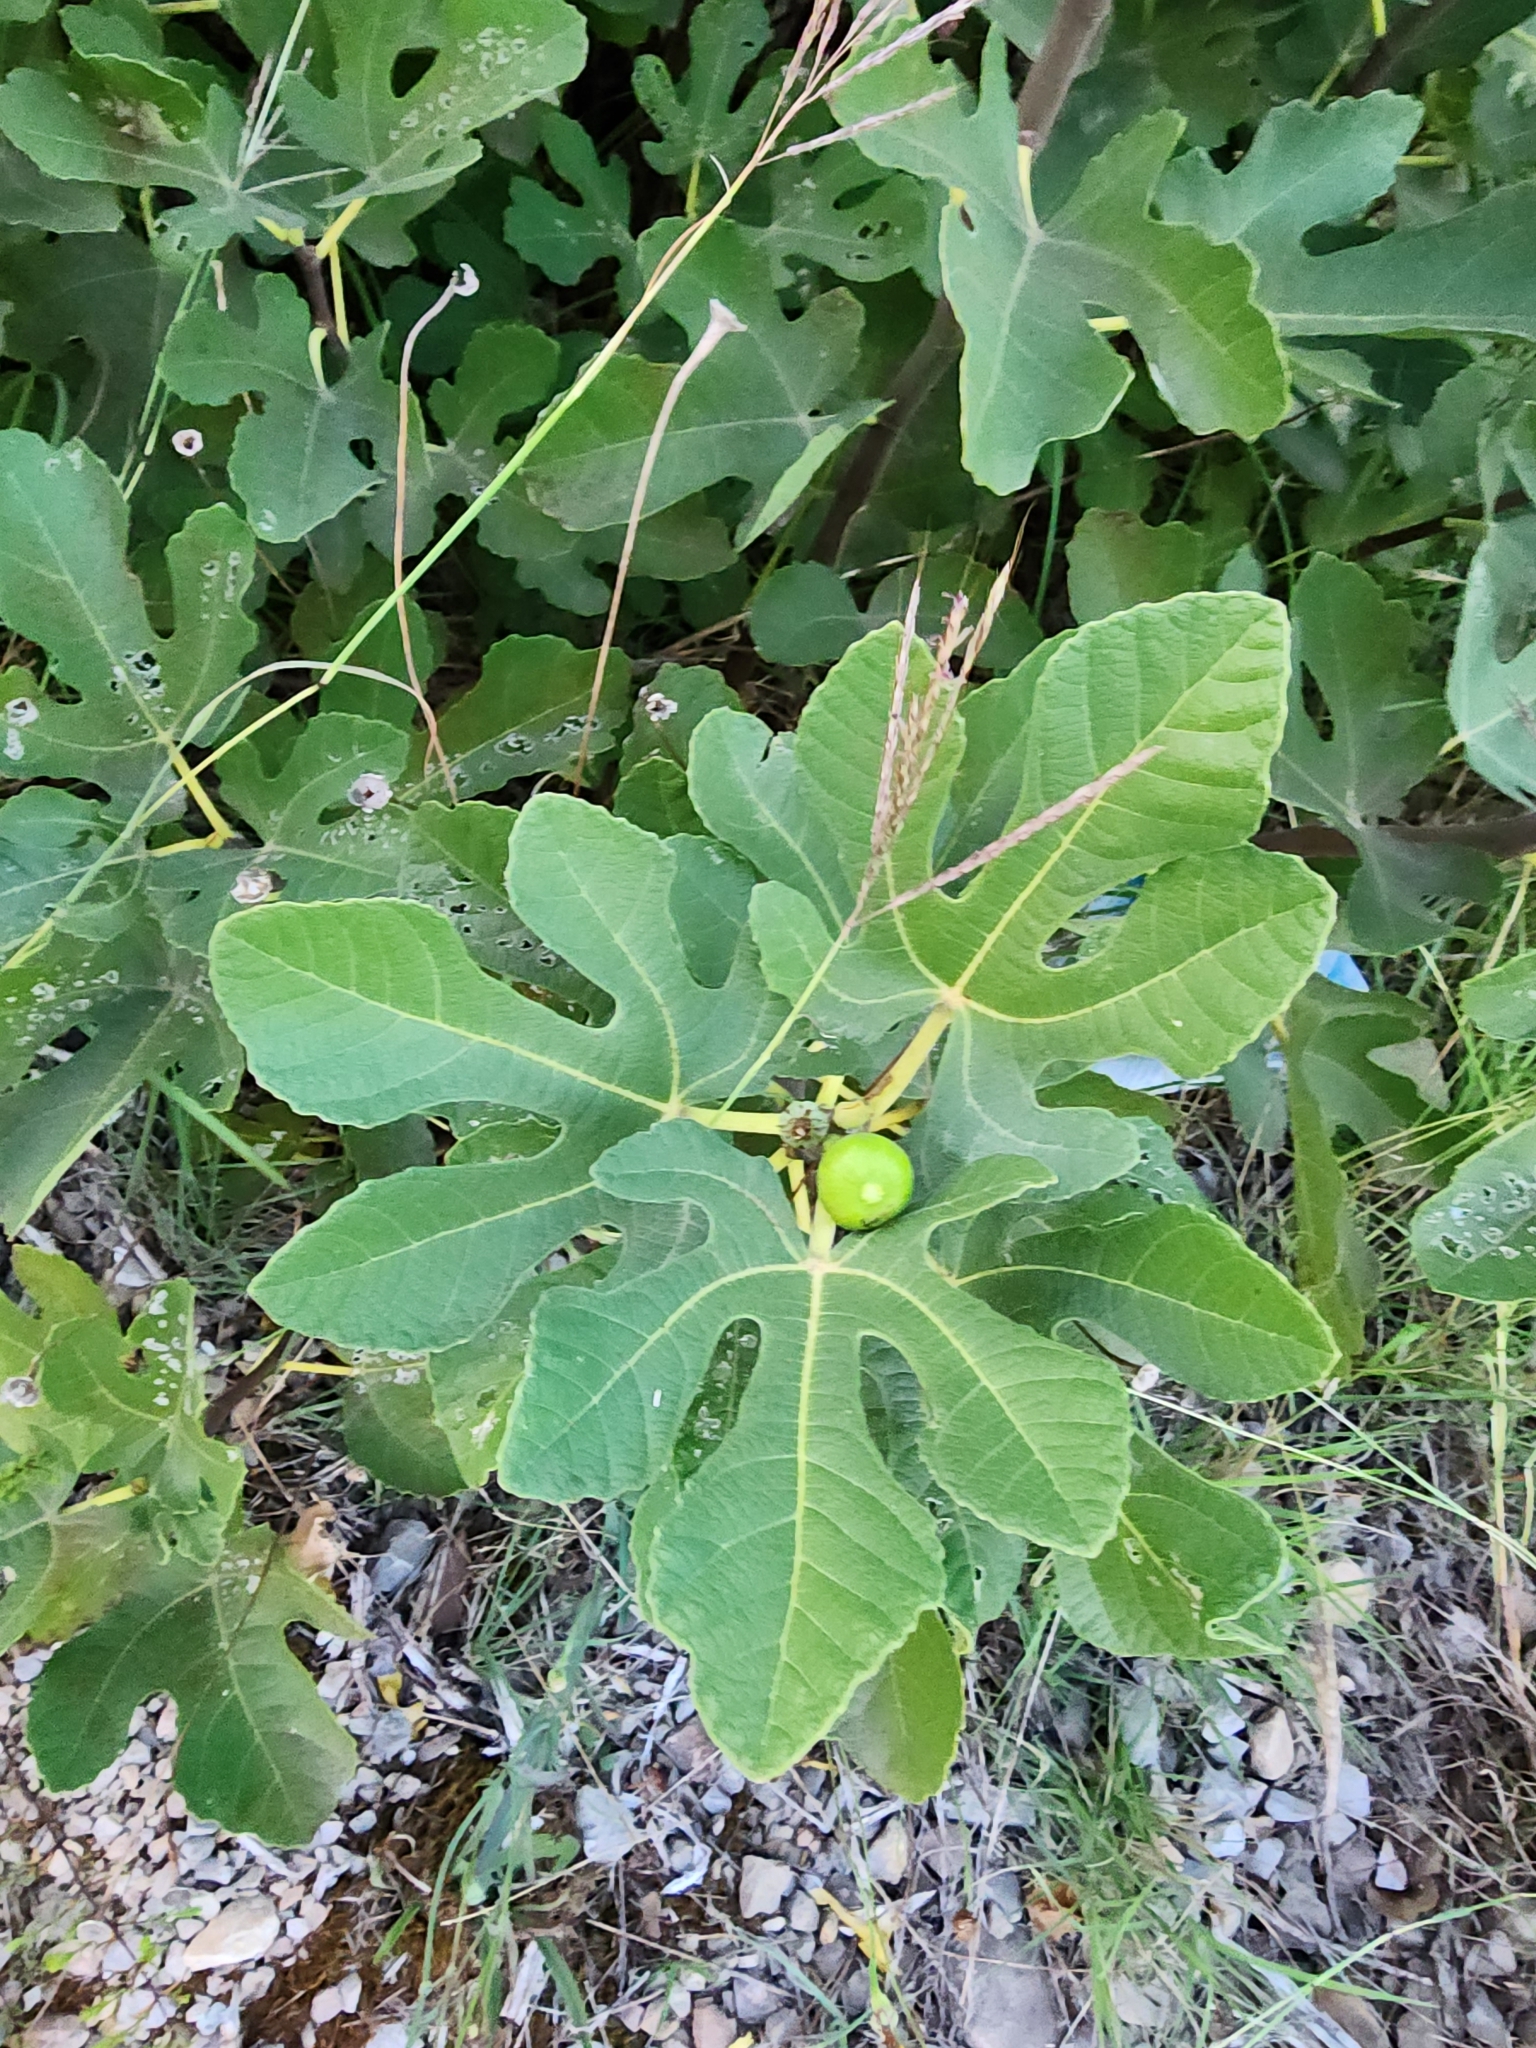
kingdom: Plantae
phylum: Tracheophyta
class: Magnoliopsida
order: Rosales
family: Moraceae
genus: Ficus
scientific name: Ficus carica
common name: Fig
